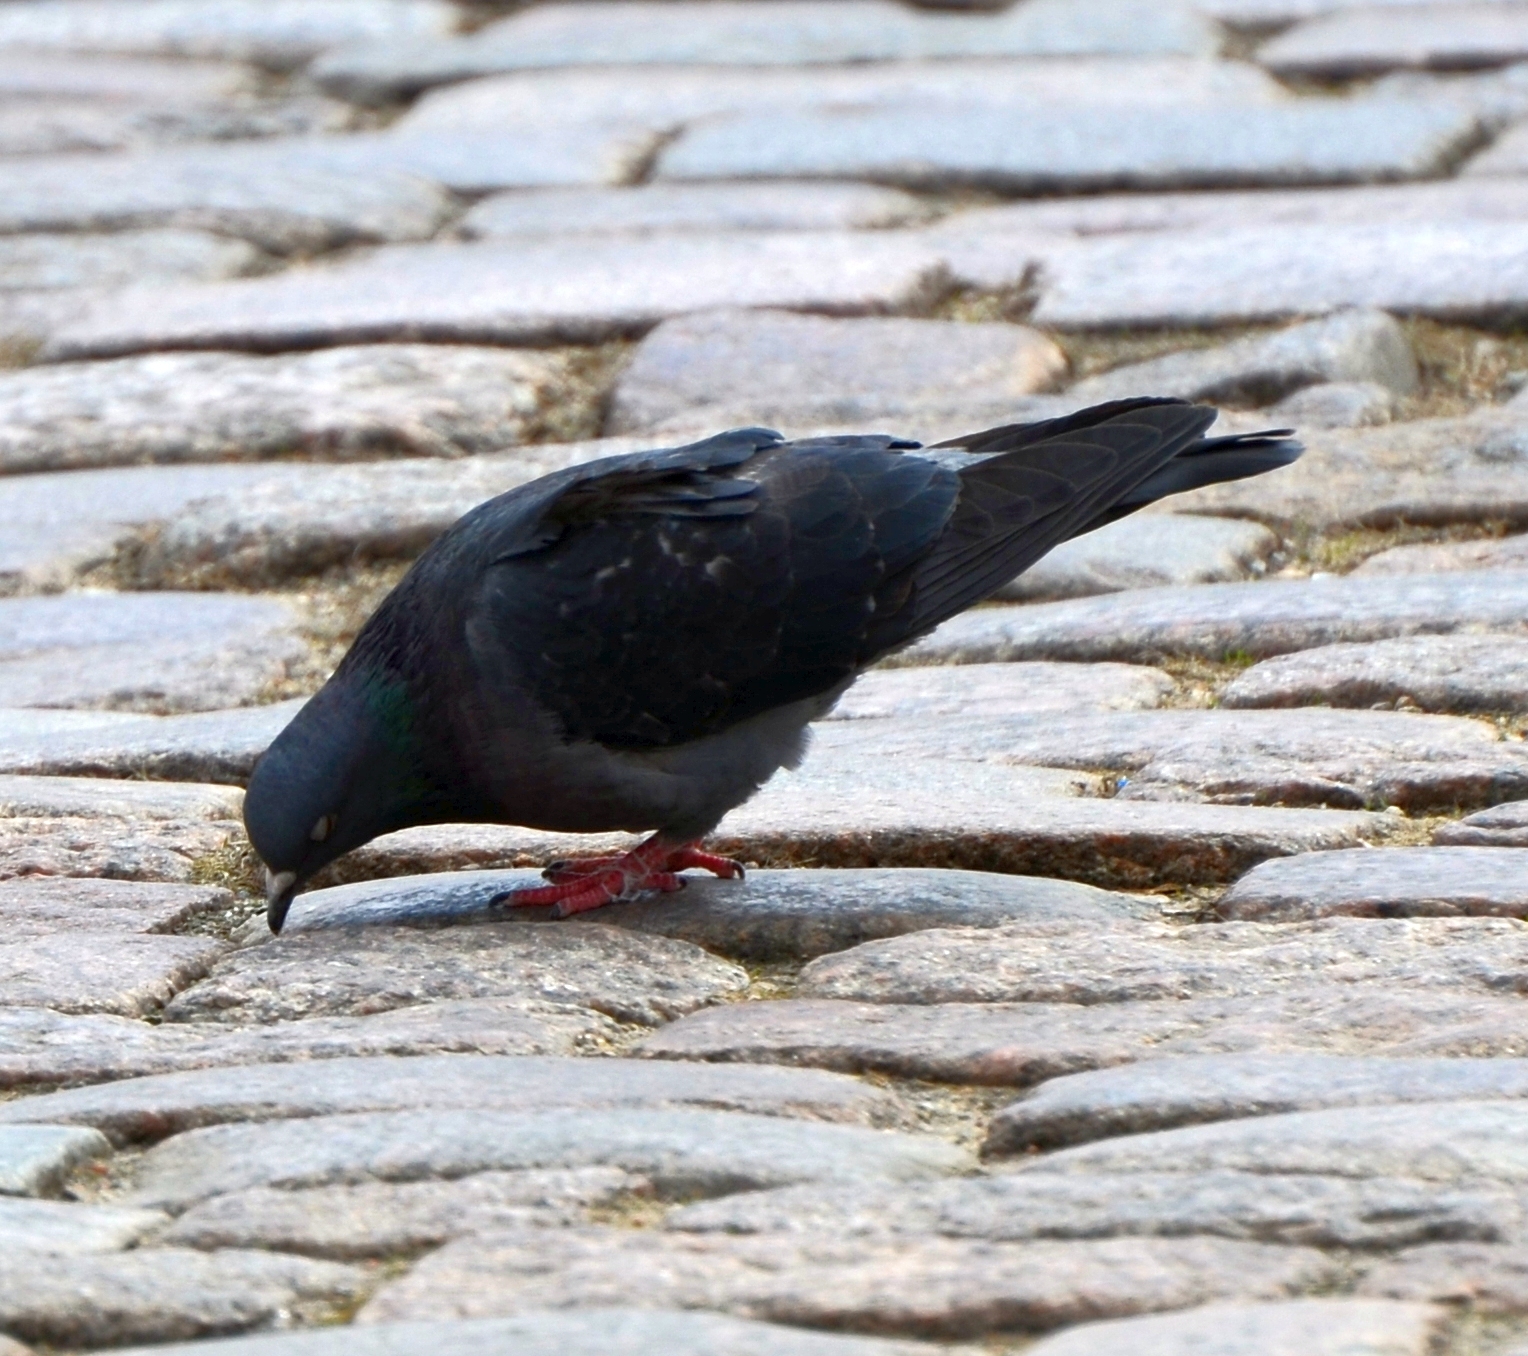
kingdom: Animalia
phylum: Chordata
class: Aves
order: Columbiformes
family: Columbidae
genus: Columba
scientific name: Columba livia
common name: Rock pigeon
